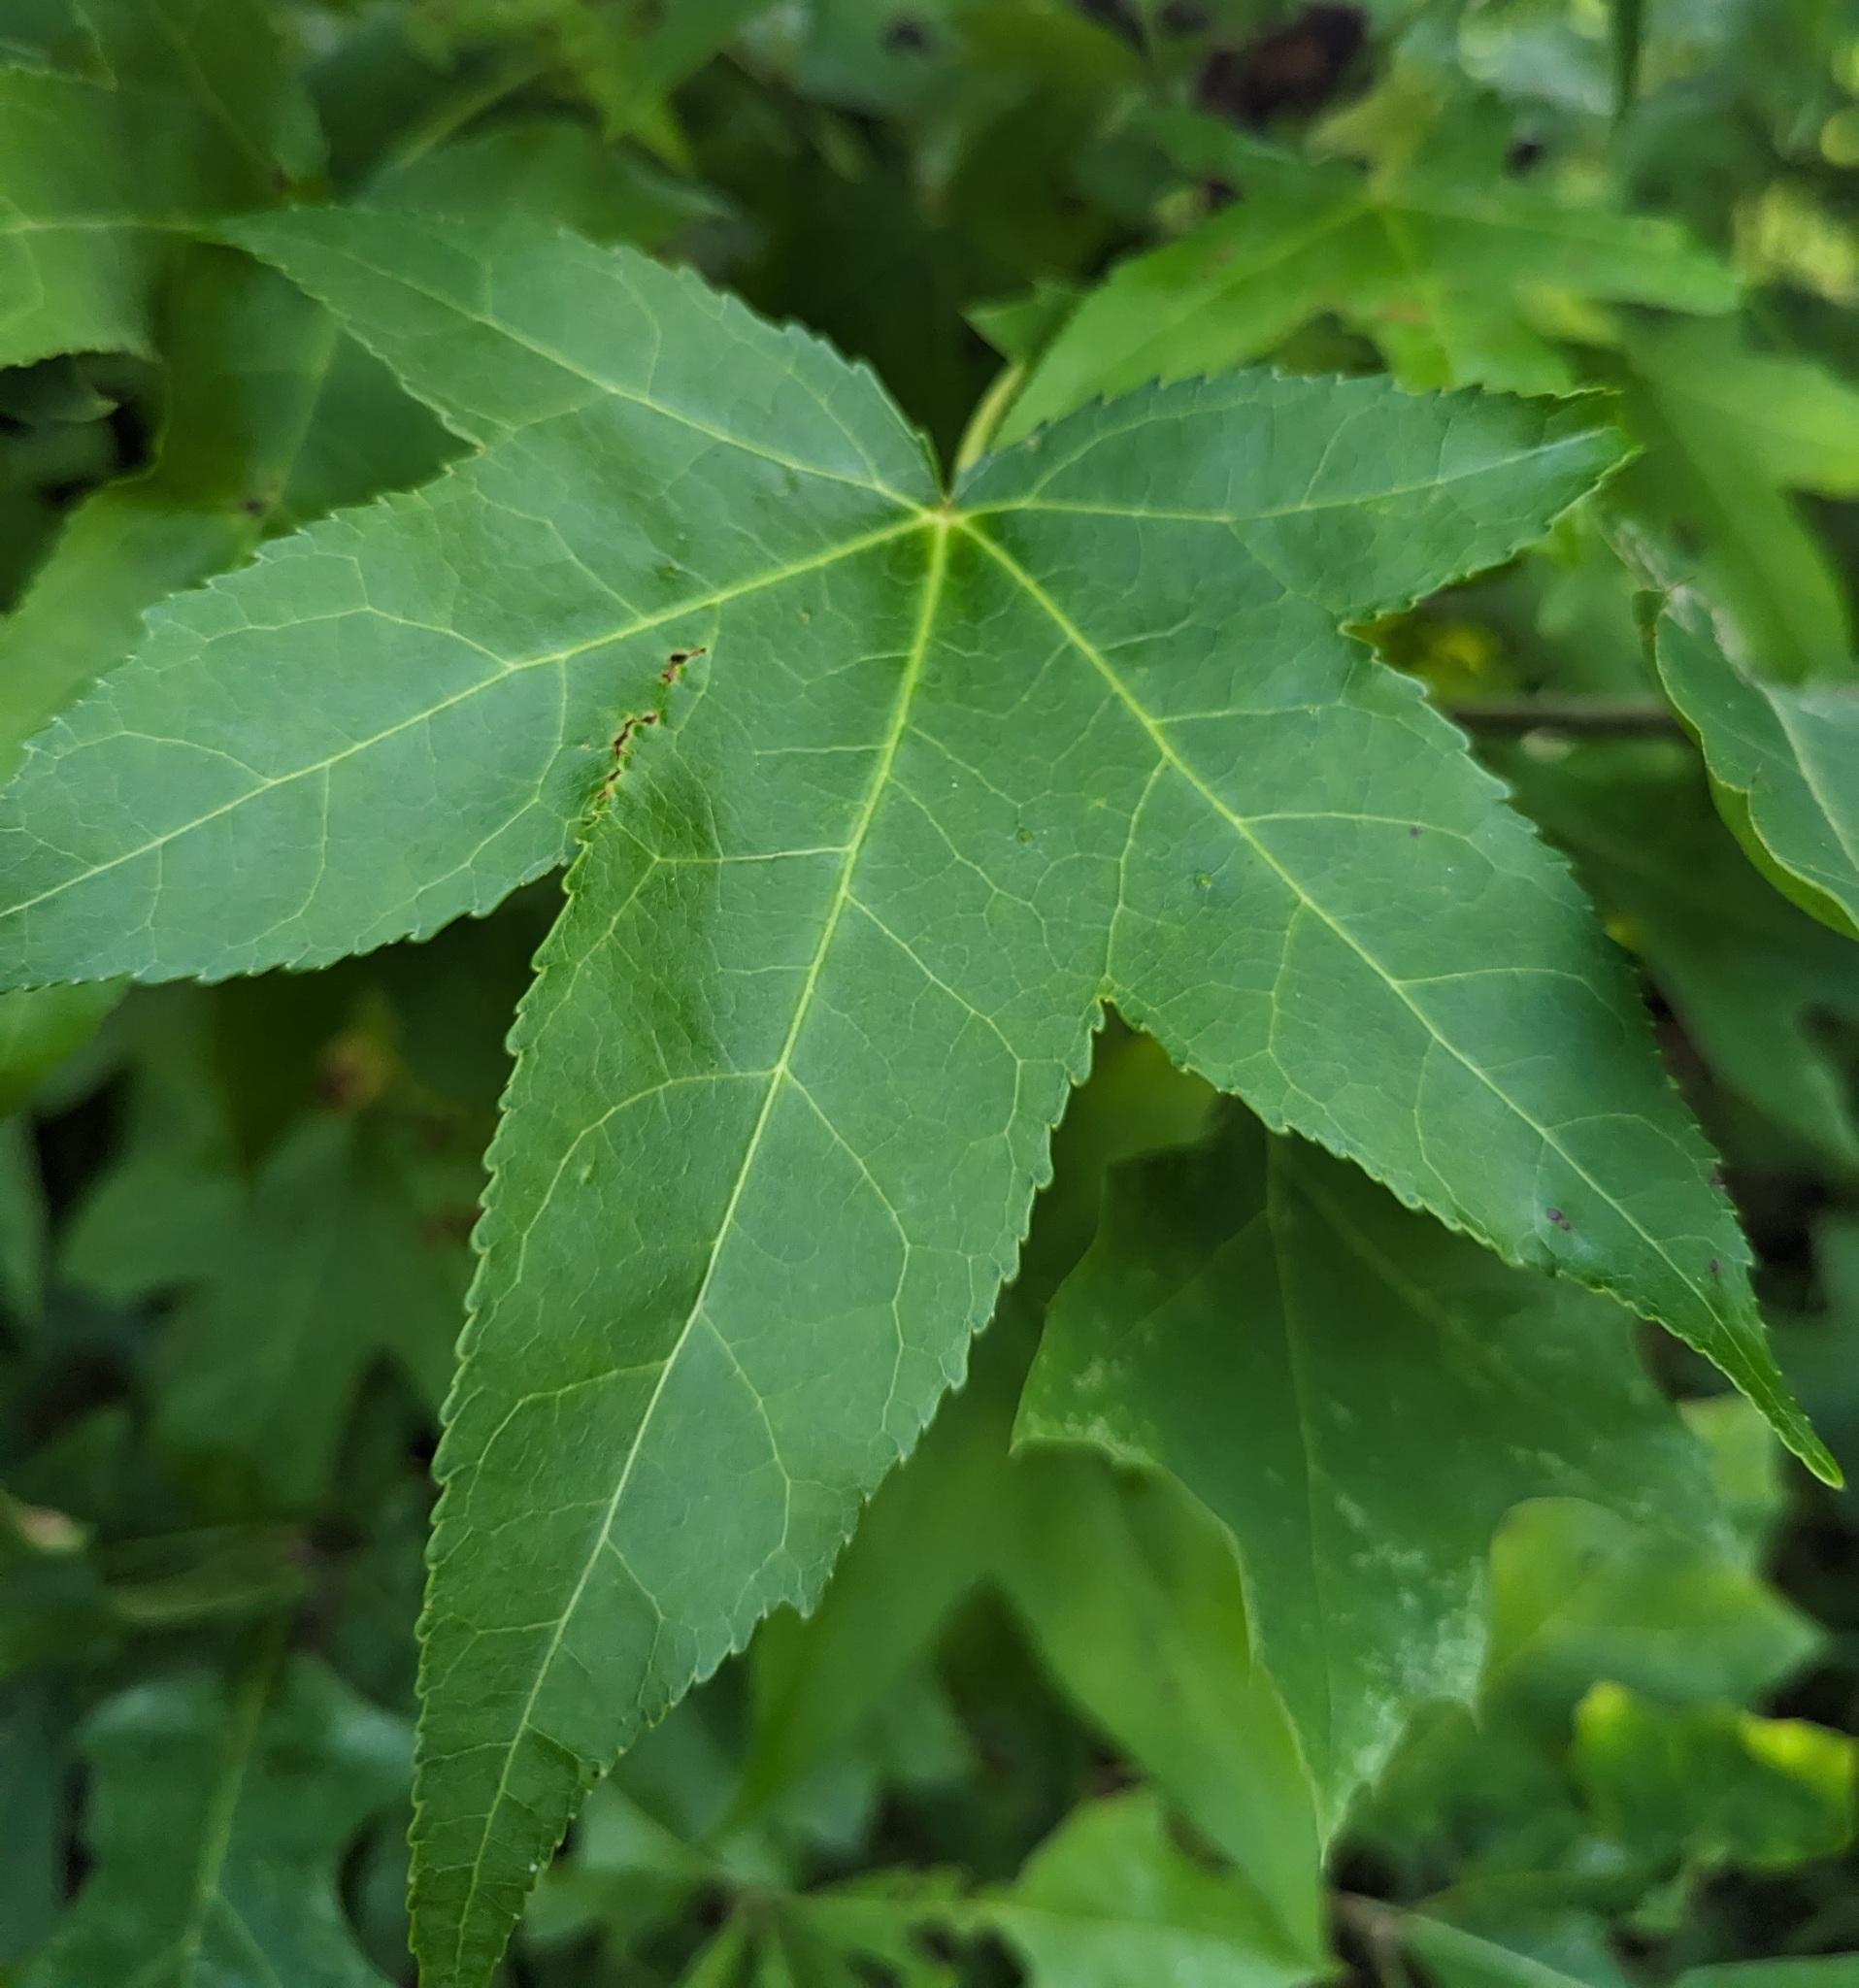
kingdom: Plantae
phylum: Tracheophyta
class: Magnoliopsida
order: Saxifragales
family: Altingiaceae
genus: Liquidambar
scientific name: Liquidambar styraciflua
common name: Sweet gum
